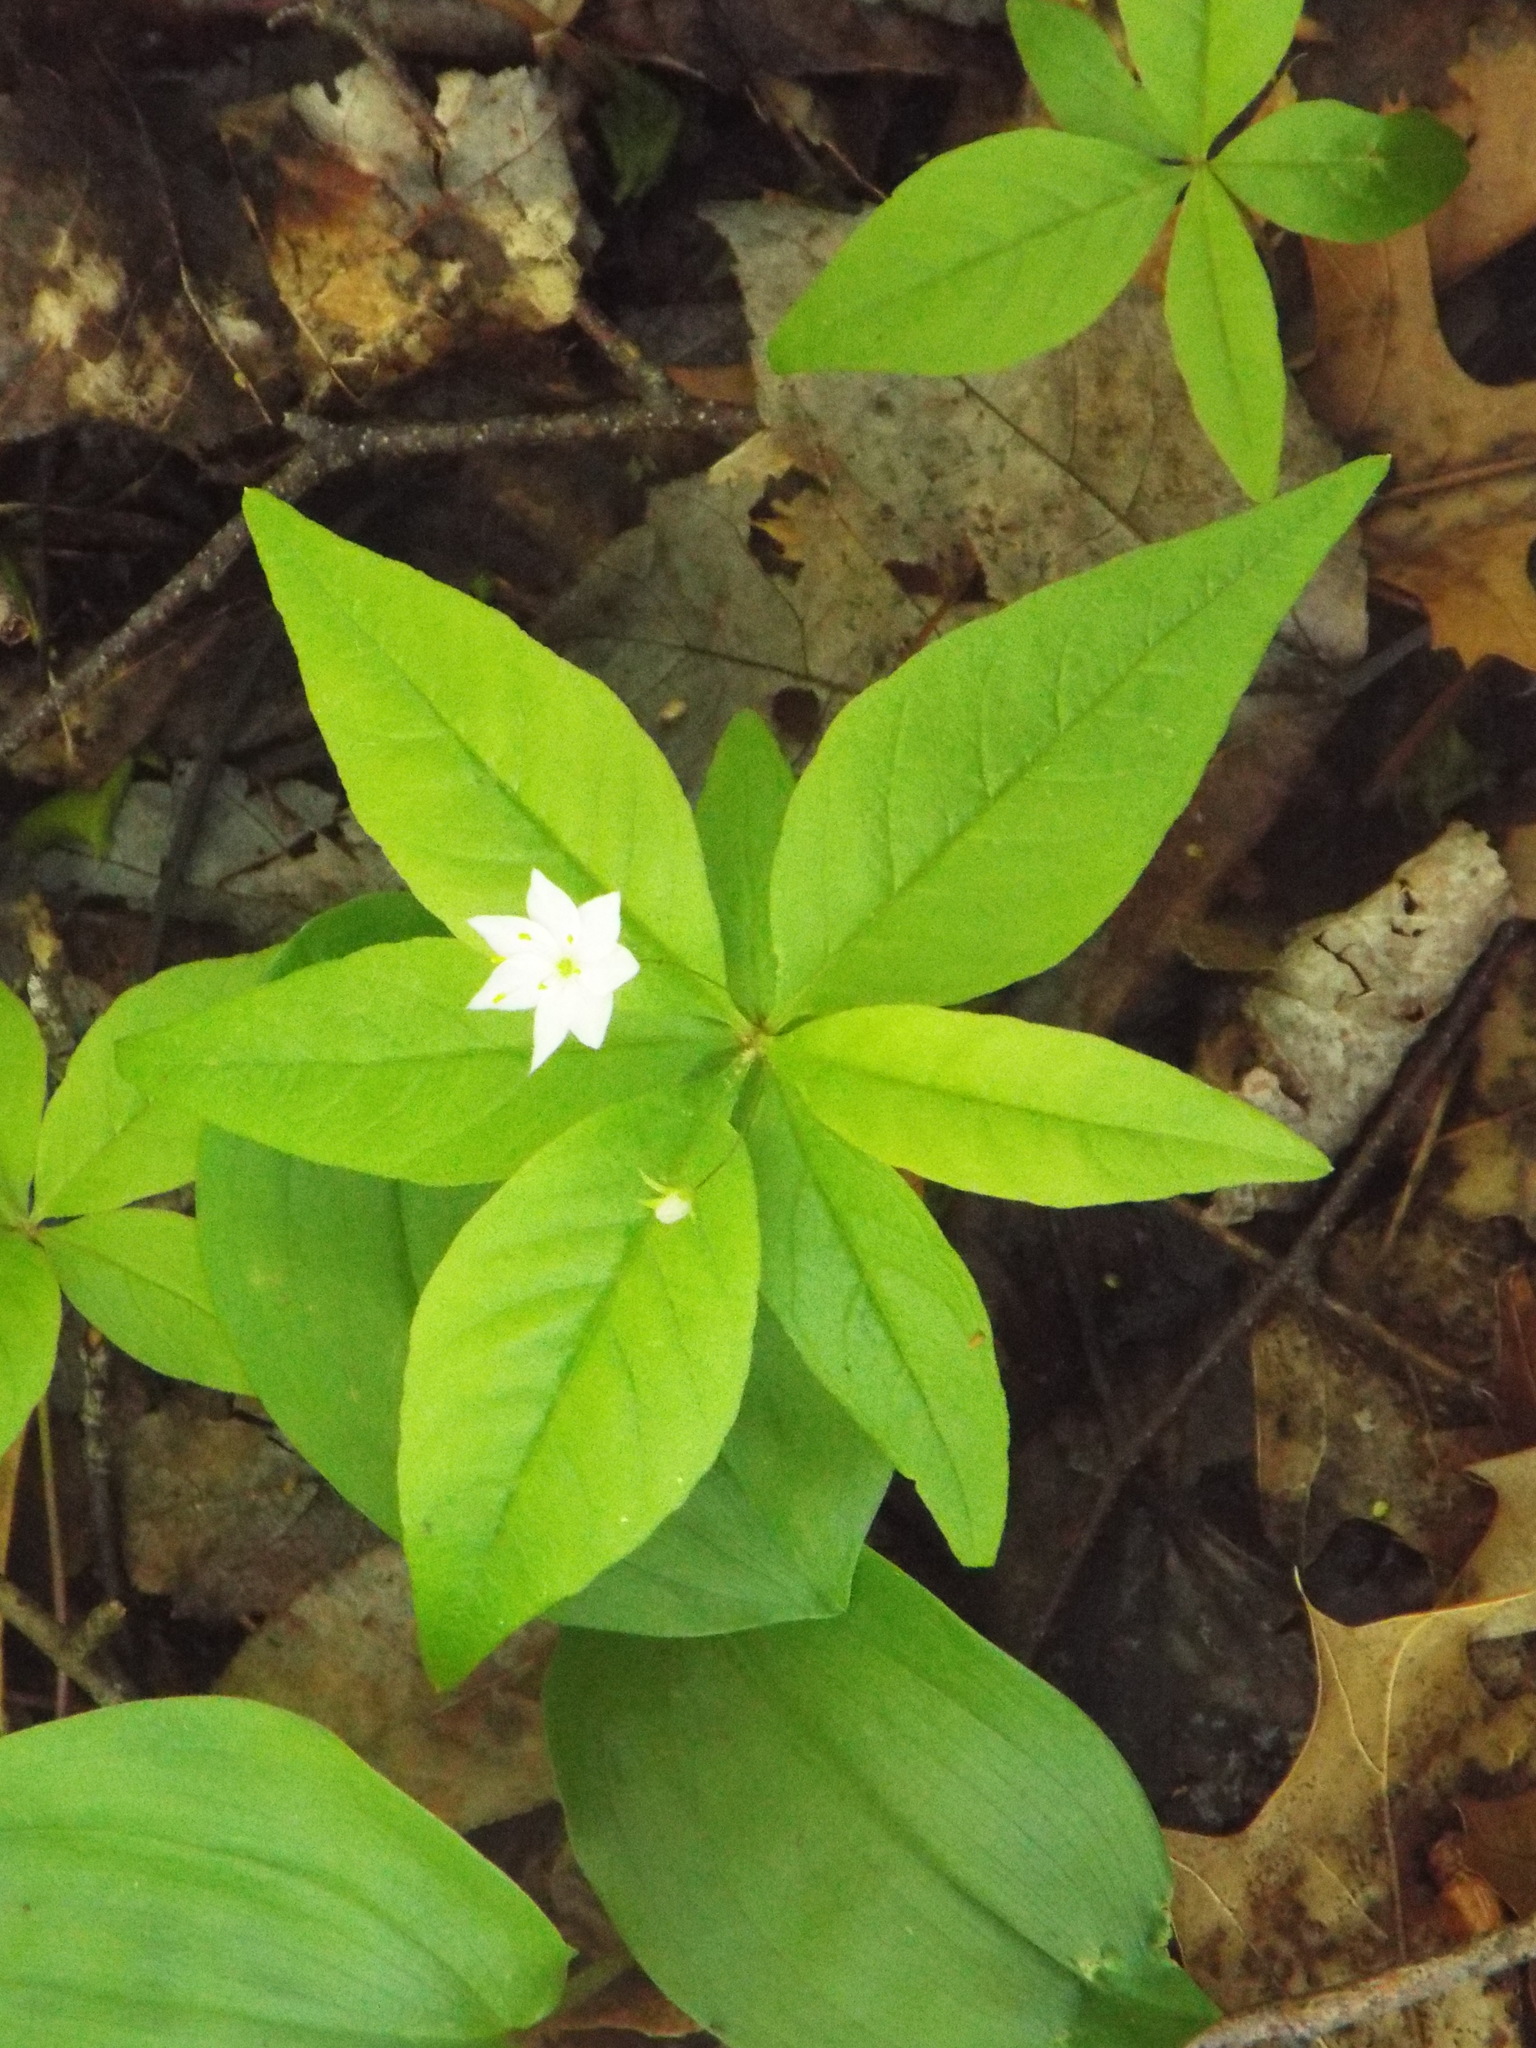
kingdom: Plantae
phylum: Tracheophyta
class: Magnoliopsida
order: Ericales
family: Primulaceae
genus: Lysimachia
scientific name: Lysimachia borealis
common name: American starflower
